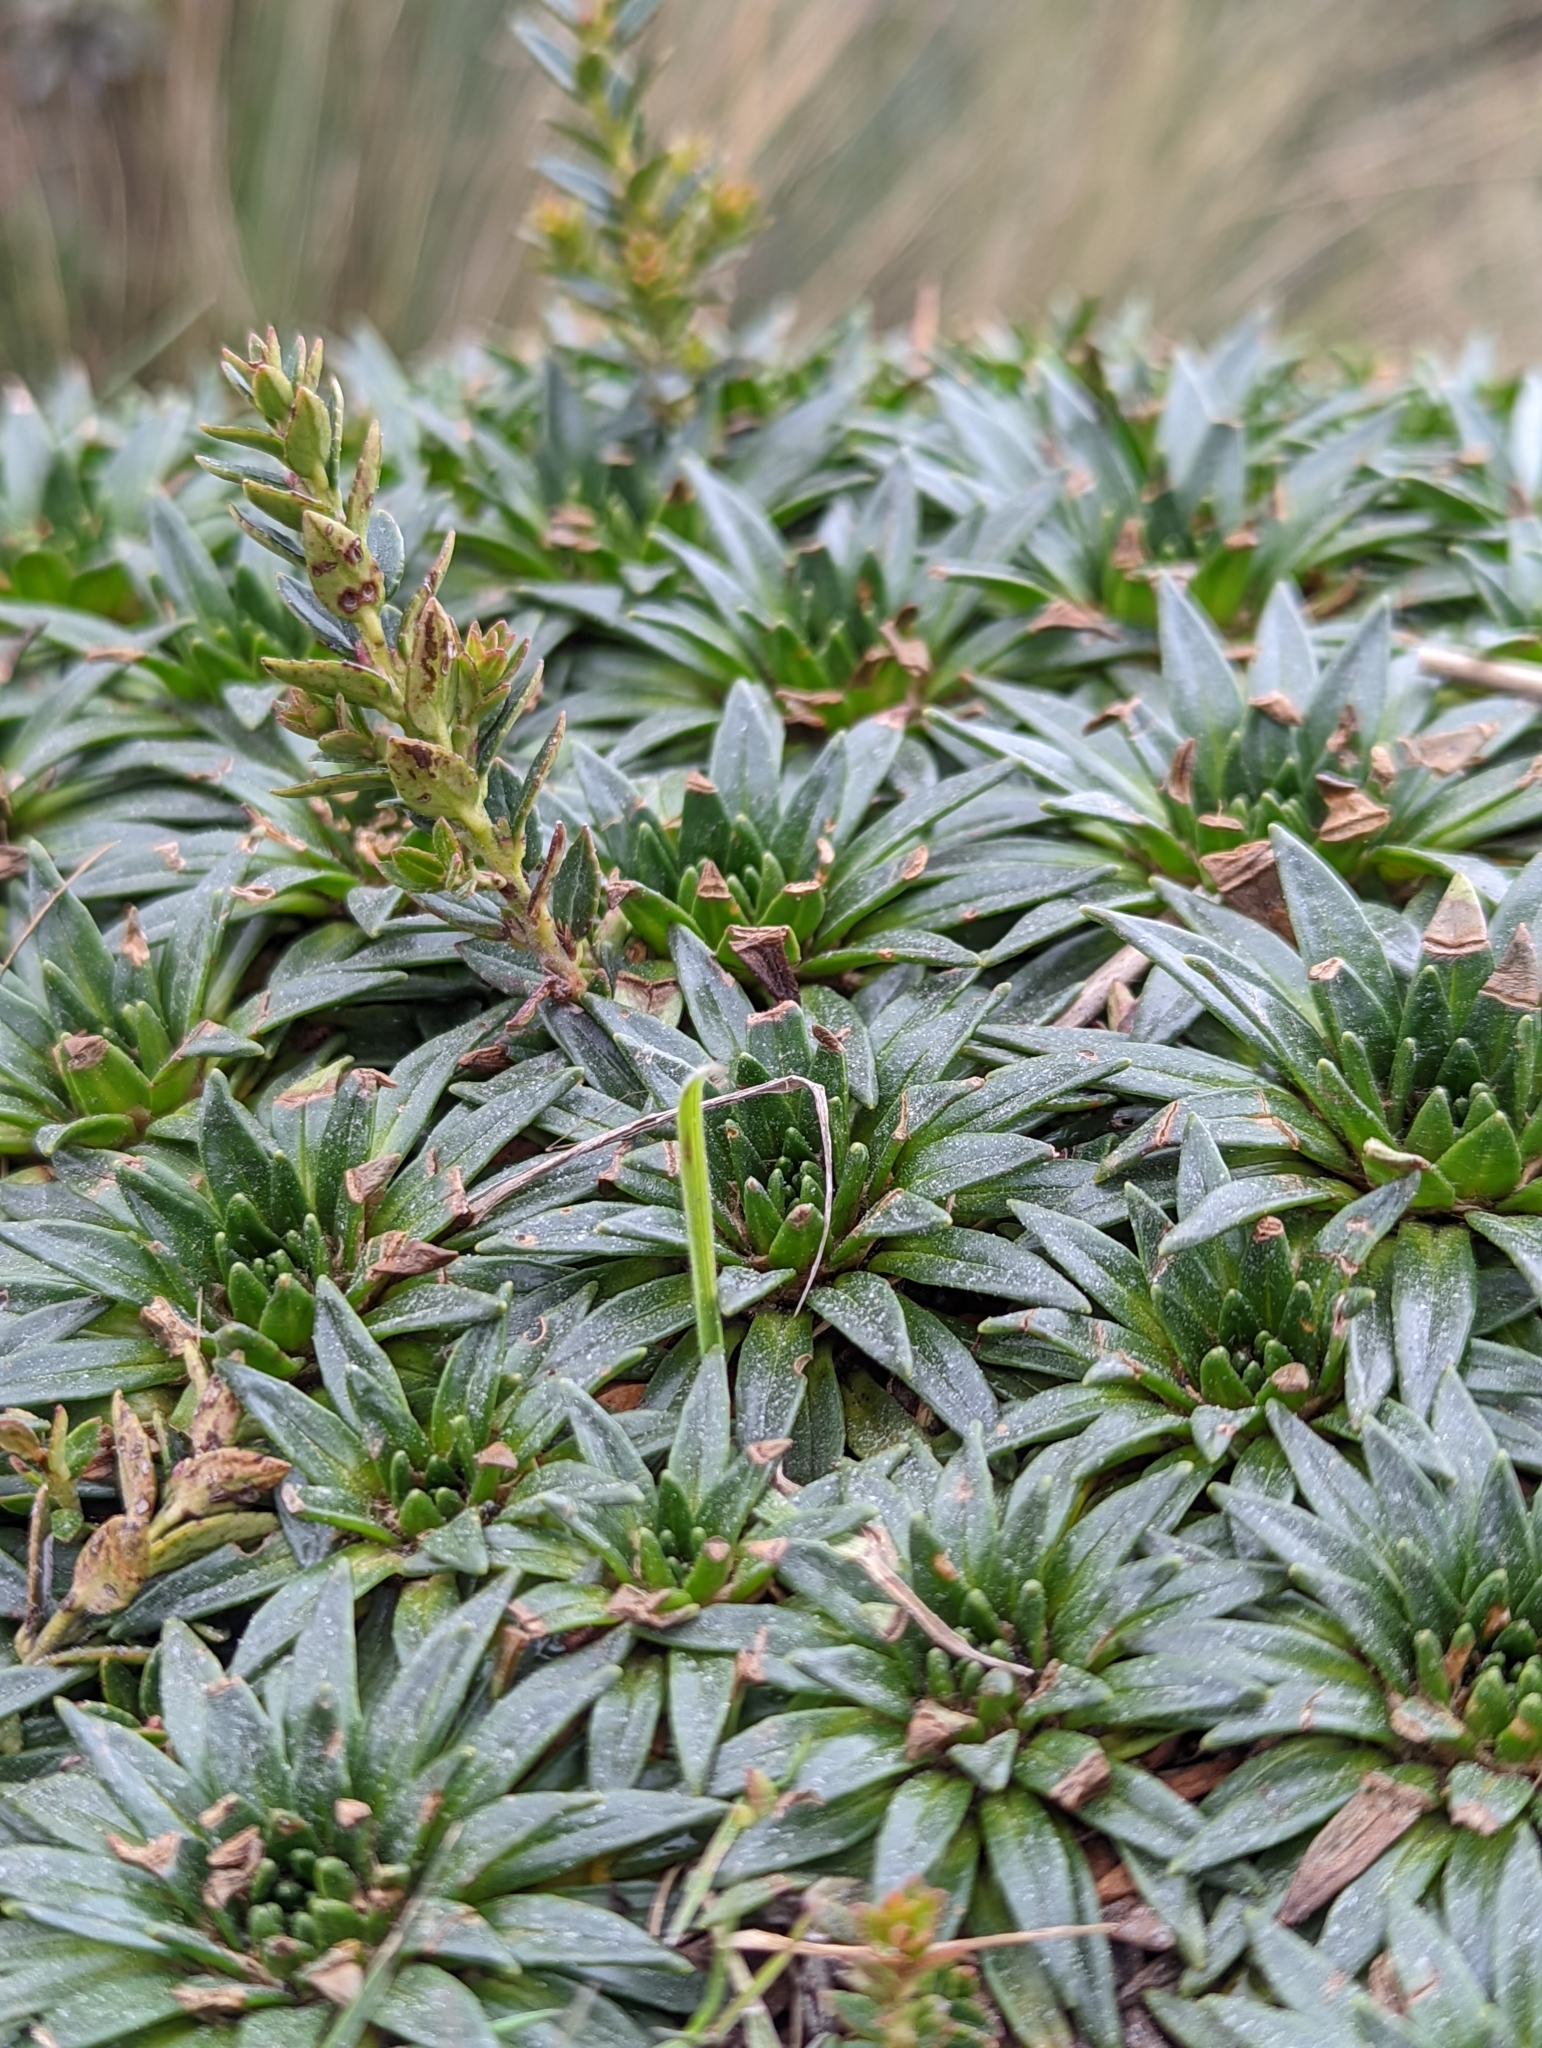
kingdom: Plantae
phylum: Tracheophyta
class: Magnoliopsida
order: Lamiales
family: Plantaginaceae
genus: Plantago
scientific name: Plantago rigida
